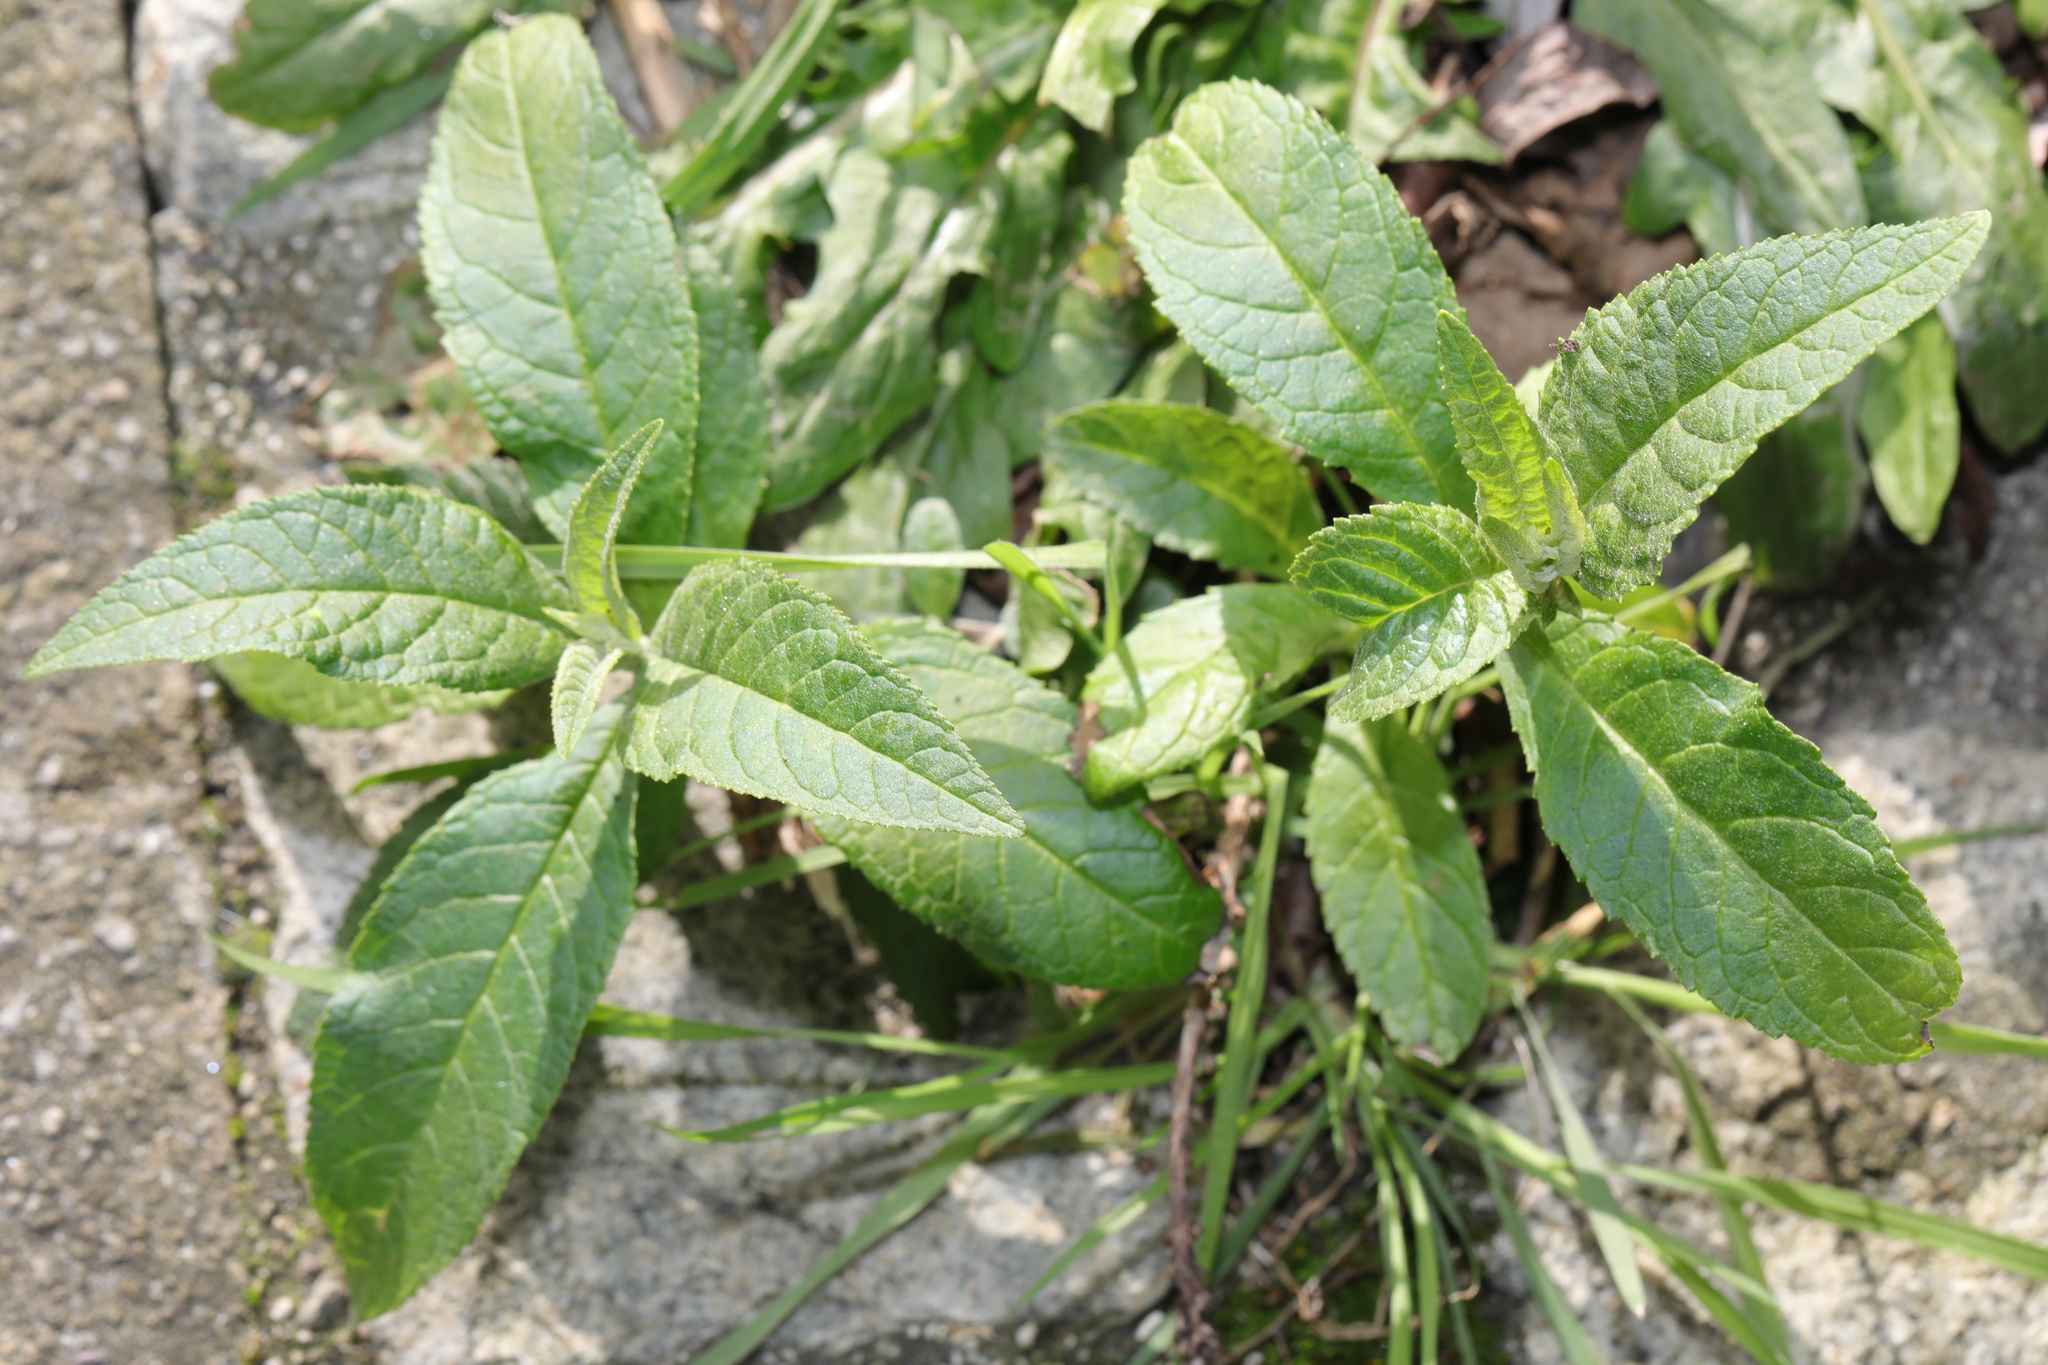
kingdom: Plantae
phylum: Tracheophyta
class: Magnoliopsida
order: Lamiales
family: Scrophulariaceae
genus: Buddleja
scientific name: Buddleja davidii
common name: Butterfly-bush
